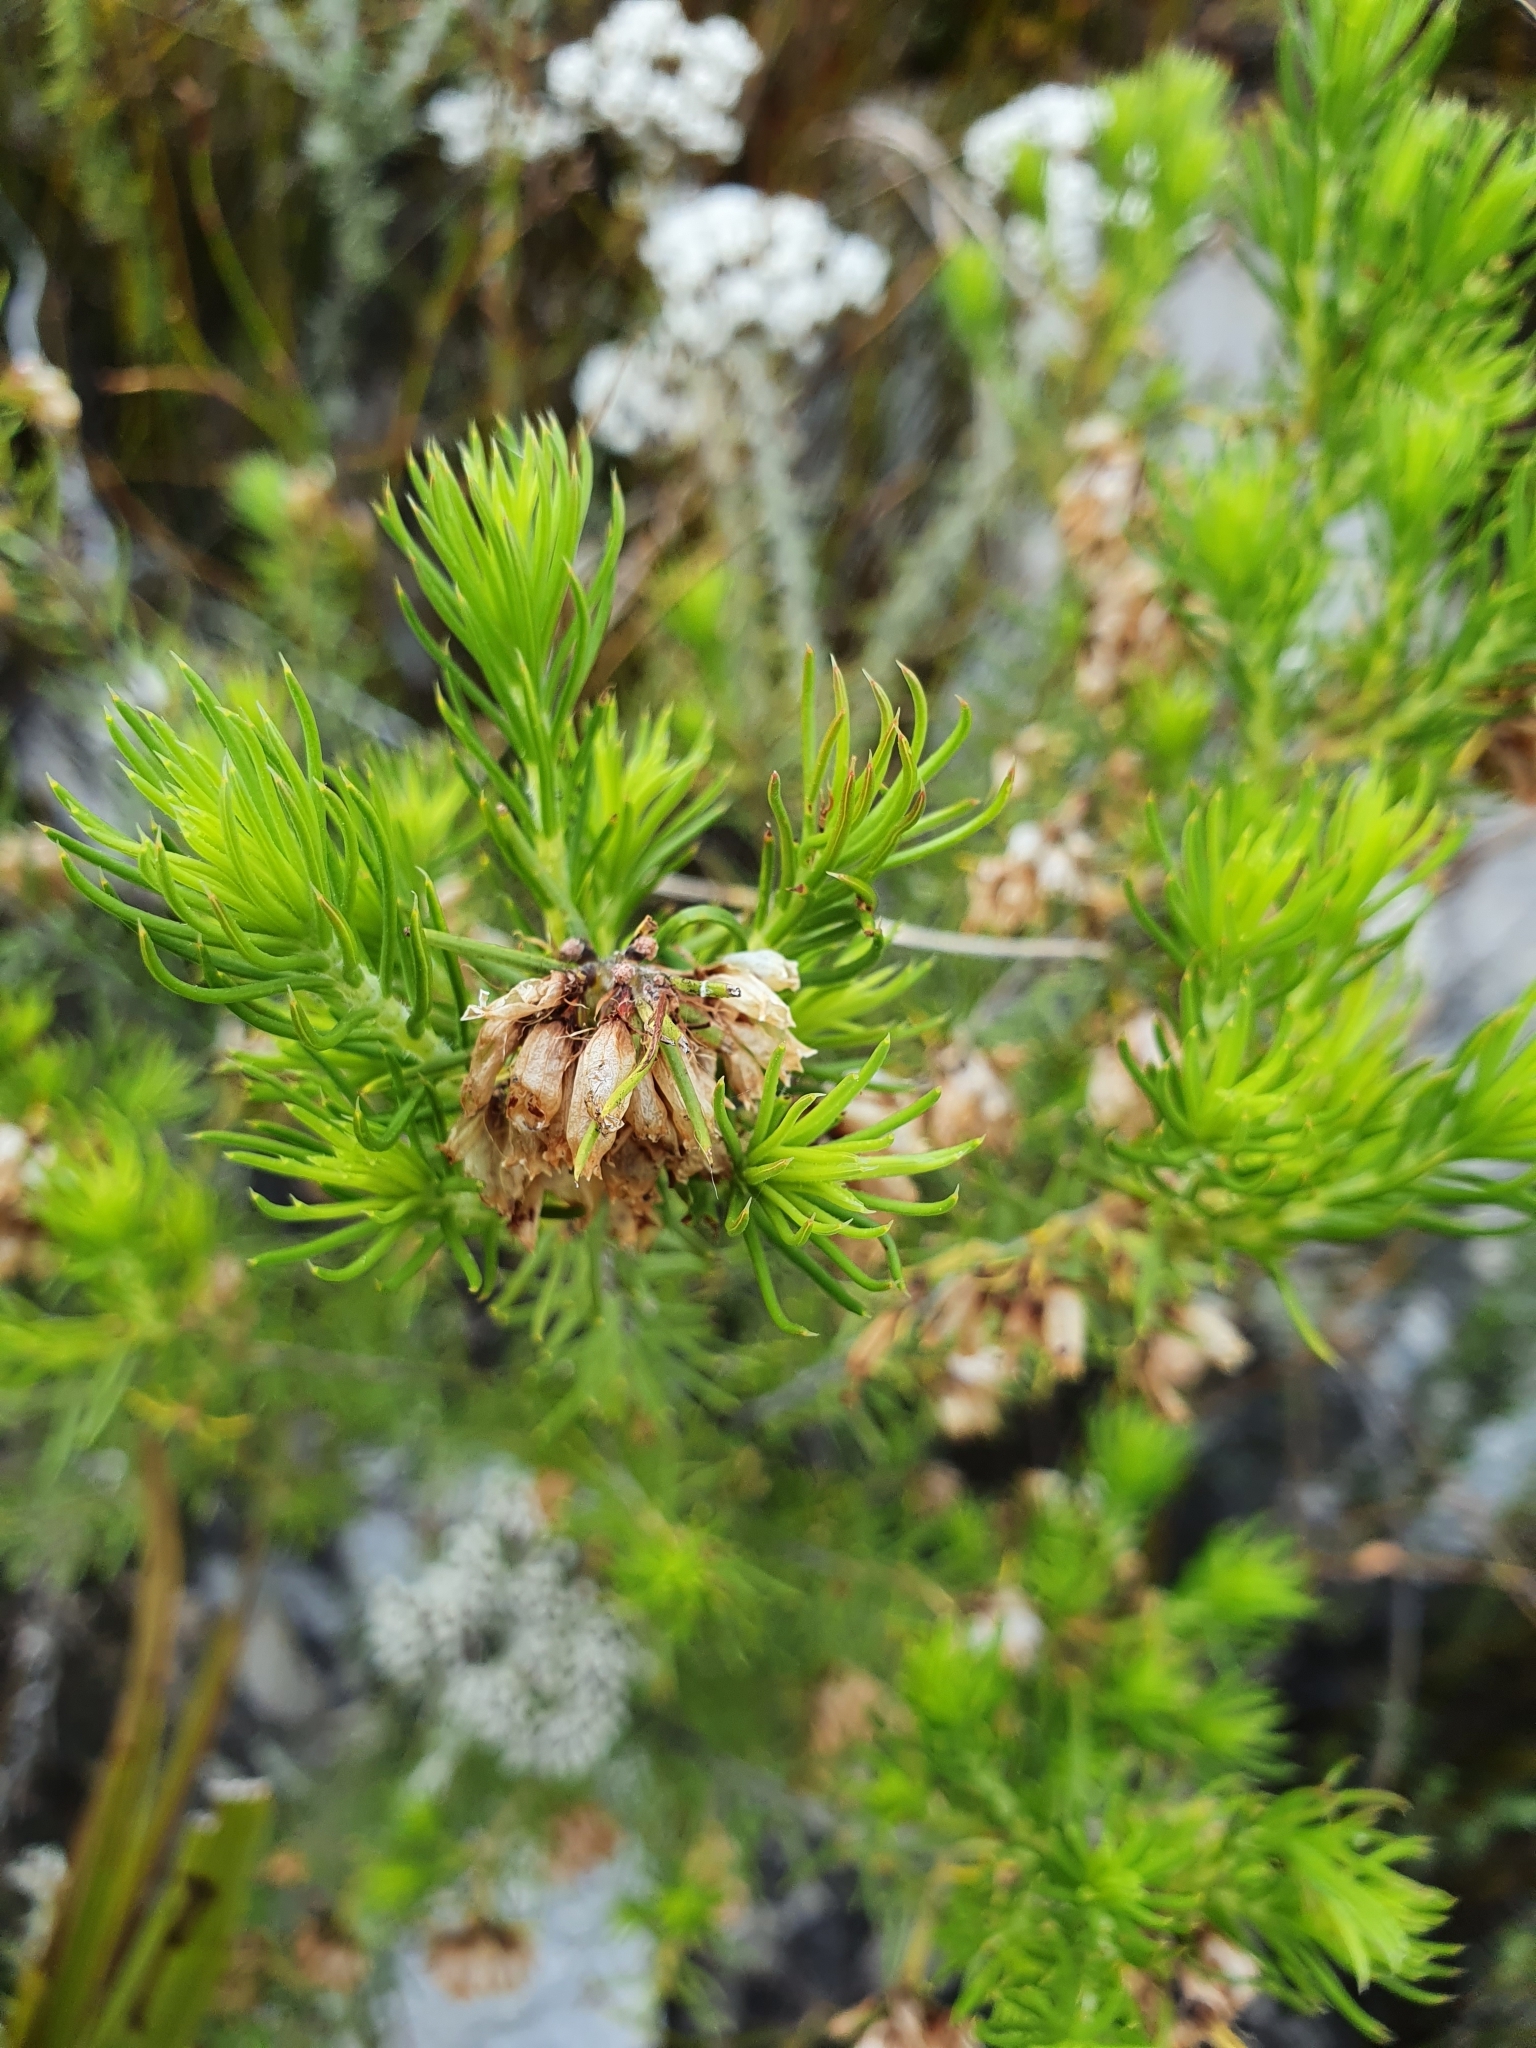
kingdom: Plantae
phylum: Tracheophyta
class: Magnoliopsida
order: Ericales
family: Ericaceae
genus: Erica
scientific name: Erica subulata
